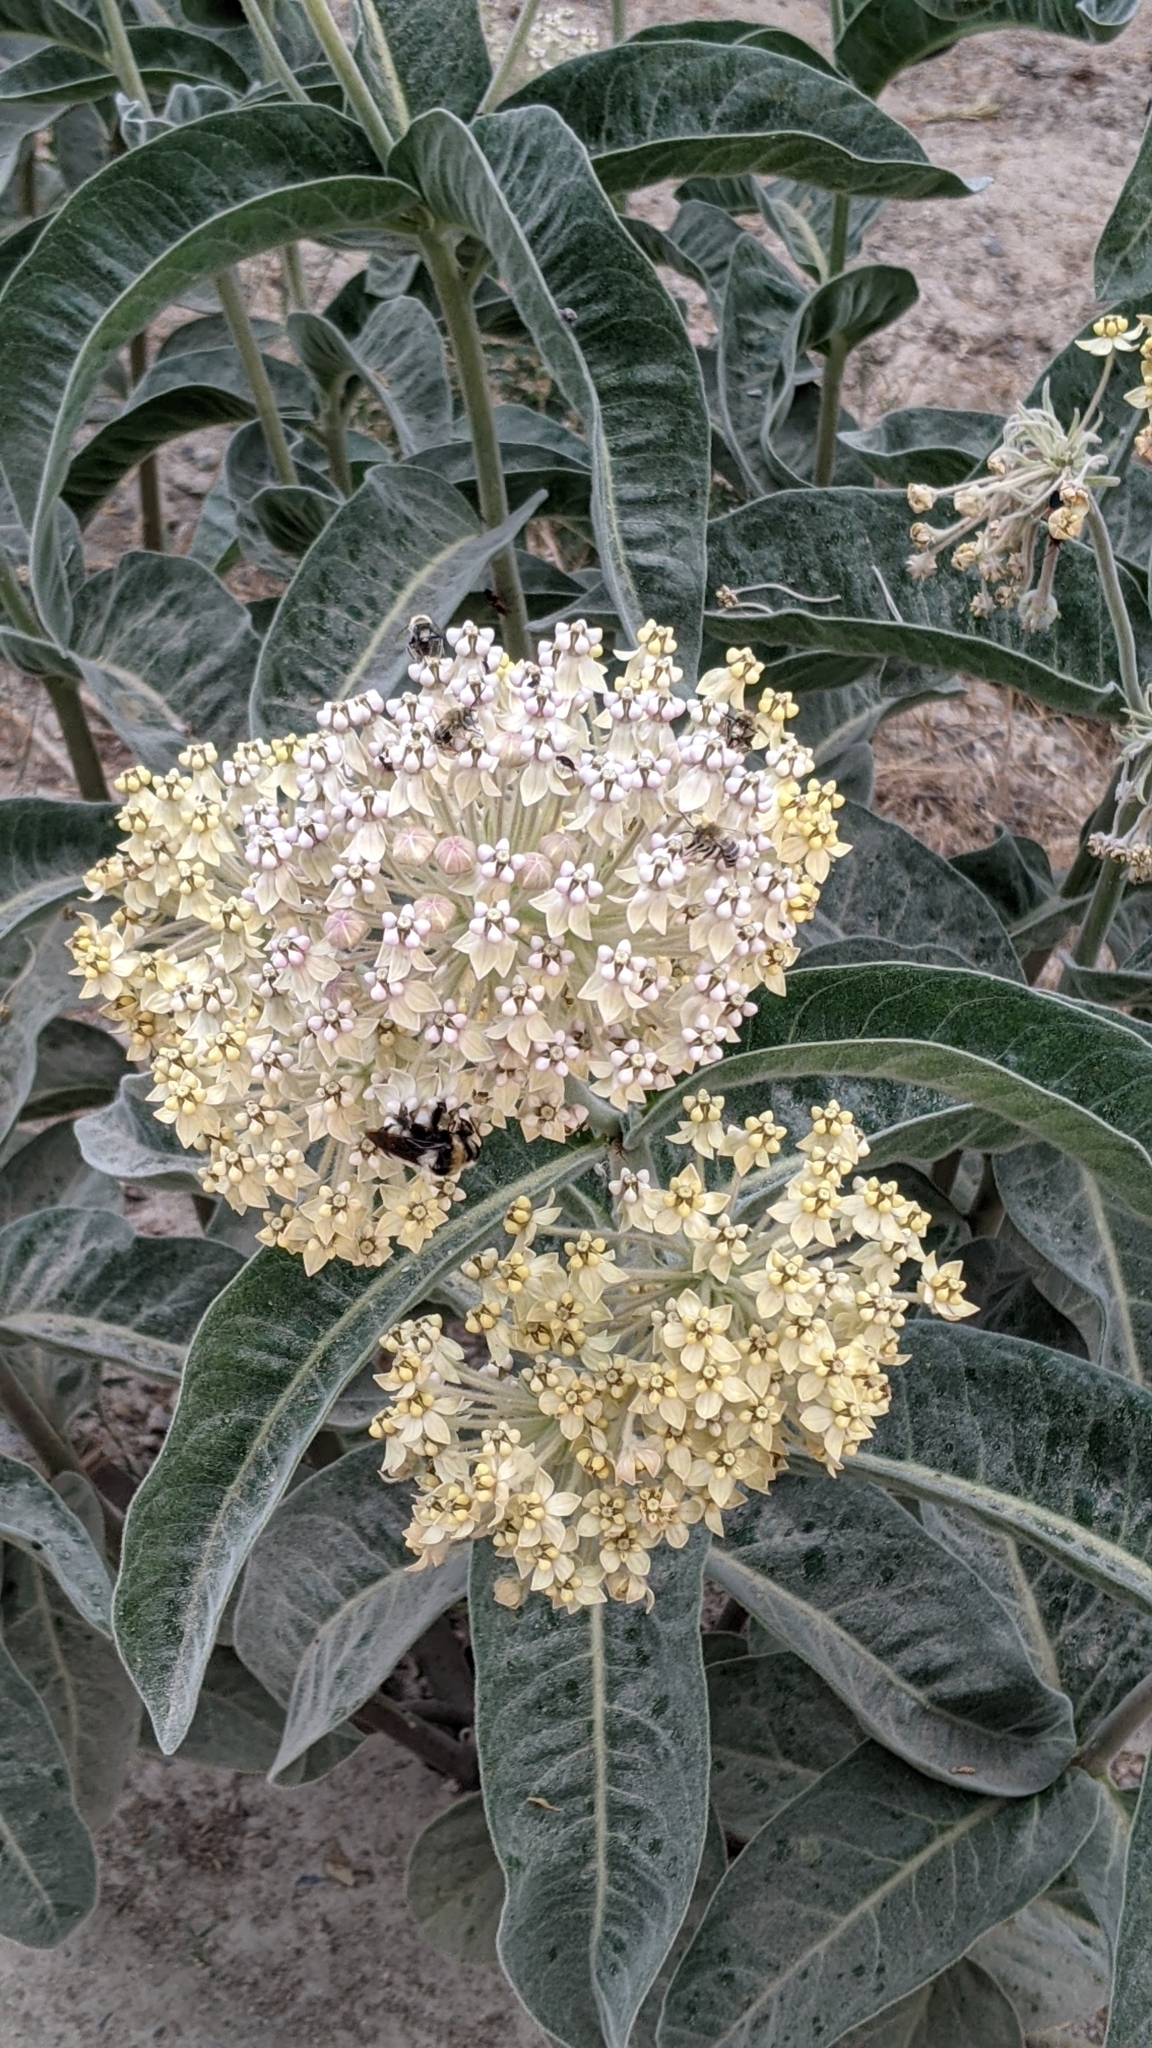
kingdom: Plantae
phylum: Tracheophyta
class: Magnoliopsida
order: Gentianales
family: Apocynaceae
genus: Asclepias
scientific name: Asclepias eriocarpa
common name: Indian milkweed
